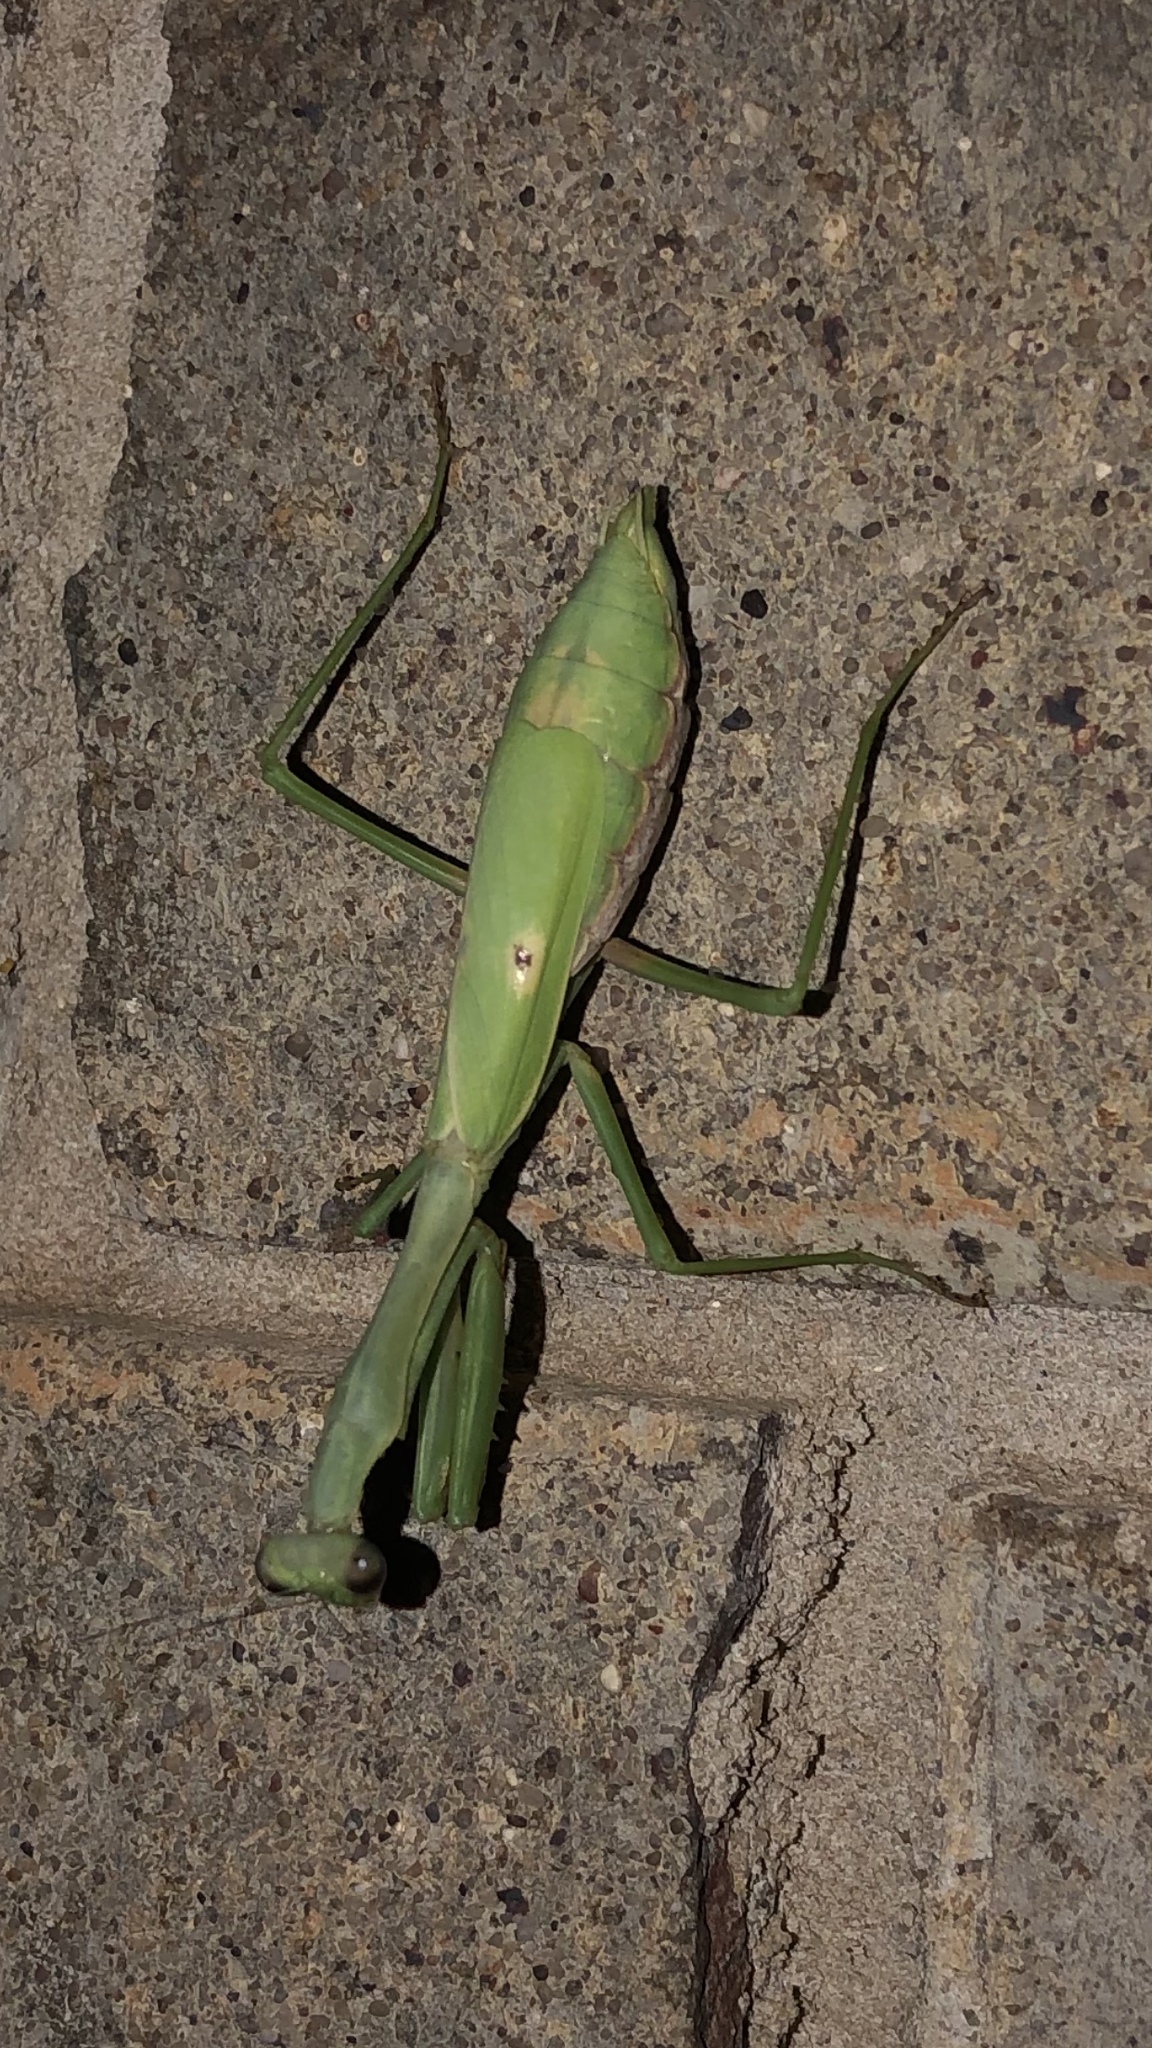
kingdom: Animalia
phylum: Arthropoda
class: Insecta
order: Mantodea
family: Mantidae
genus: Stagmomantis
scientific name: Stagmomantis carolina
